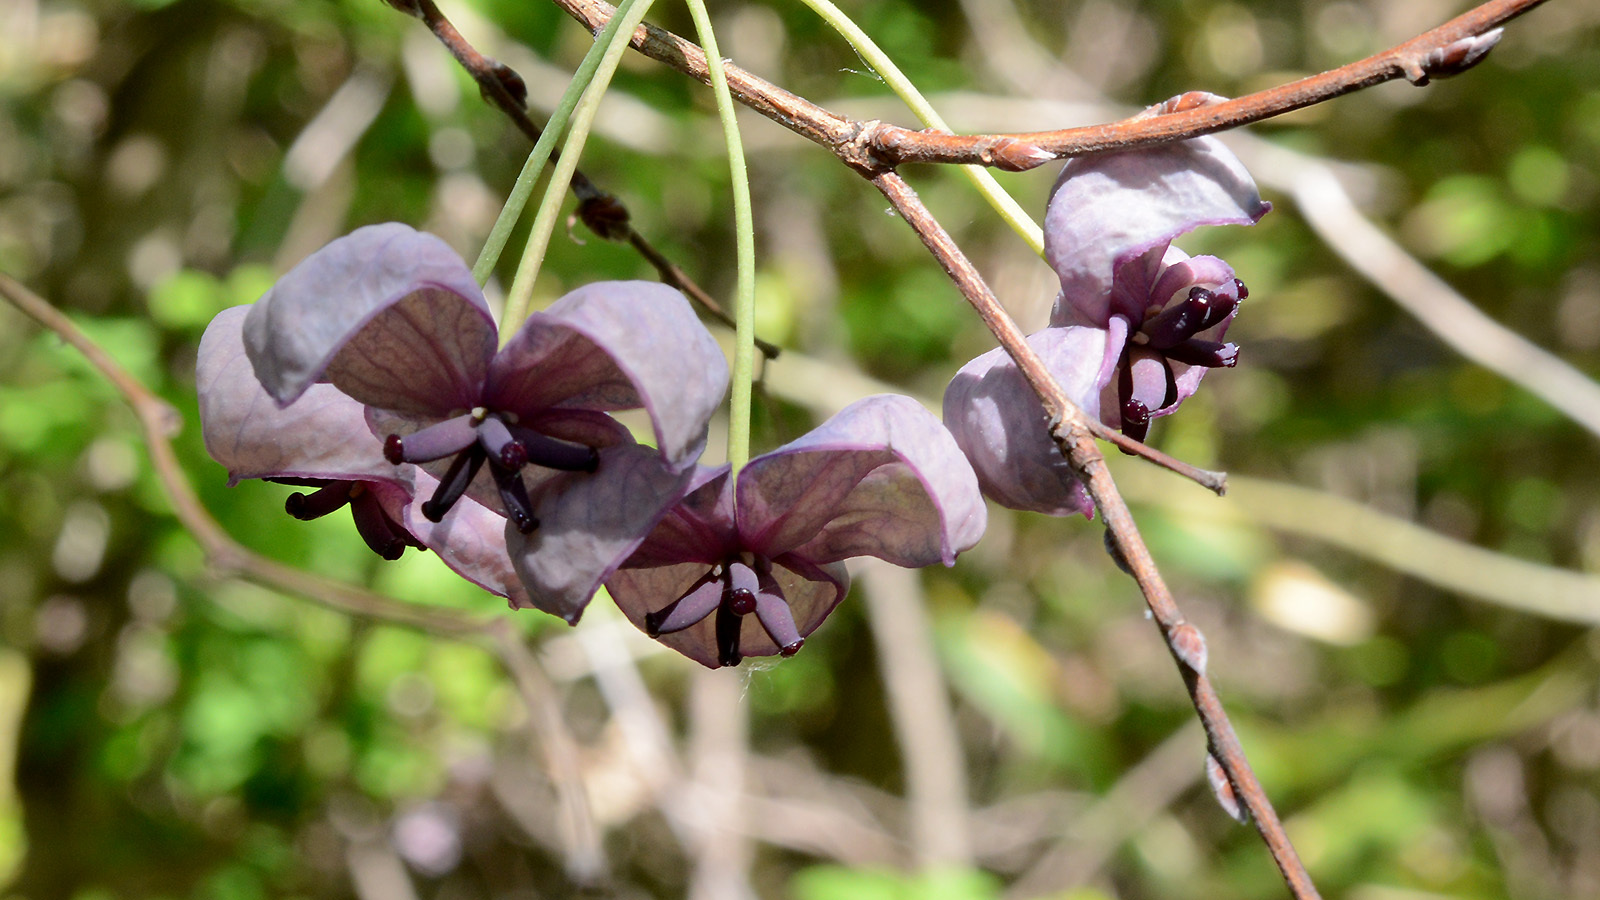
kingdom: Plantae
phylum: Tracheophyta
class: Magnoliopsida
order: Ranunculales
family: Lardizabalaceae
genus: Akebia
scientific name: Akebia quinata
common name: Five-leaf akebia
